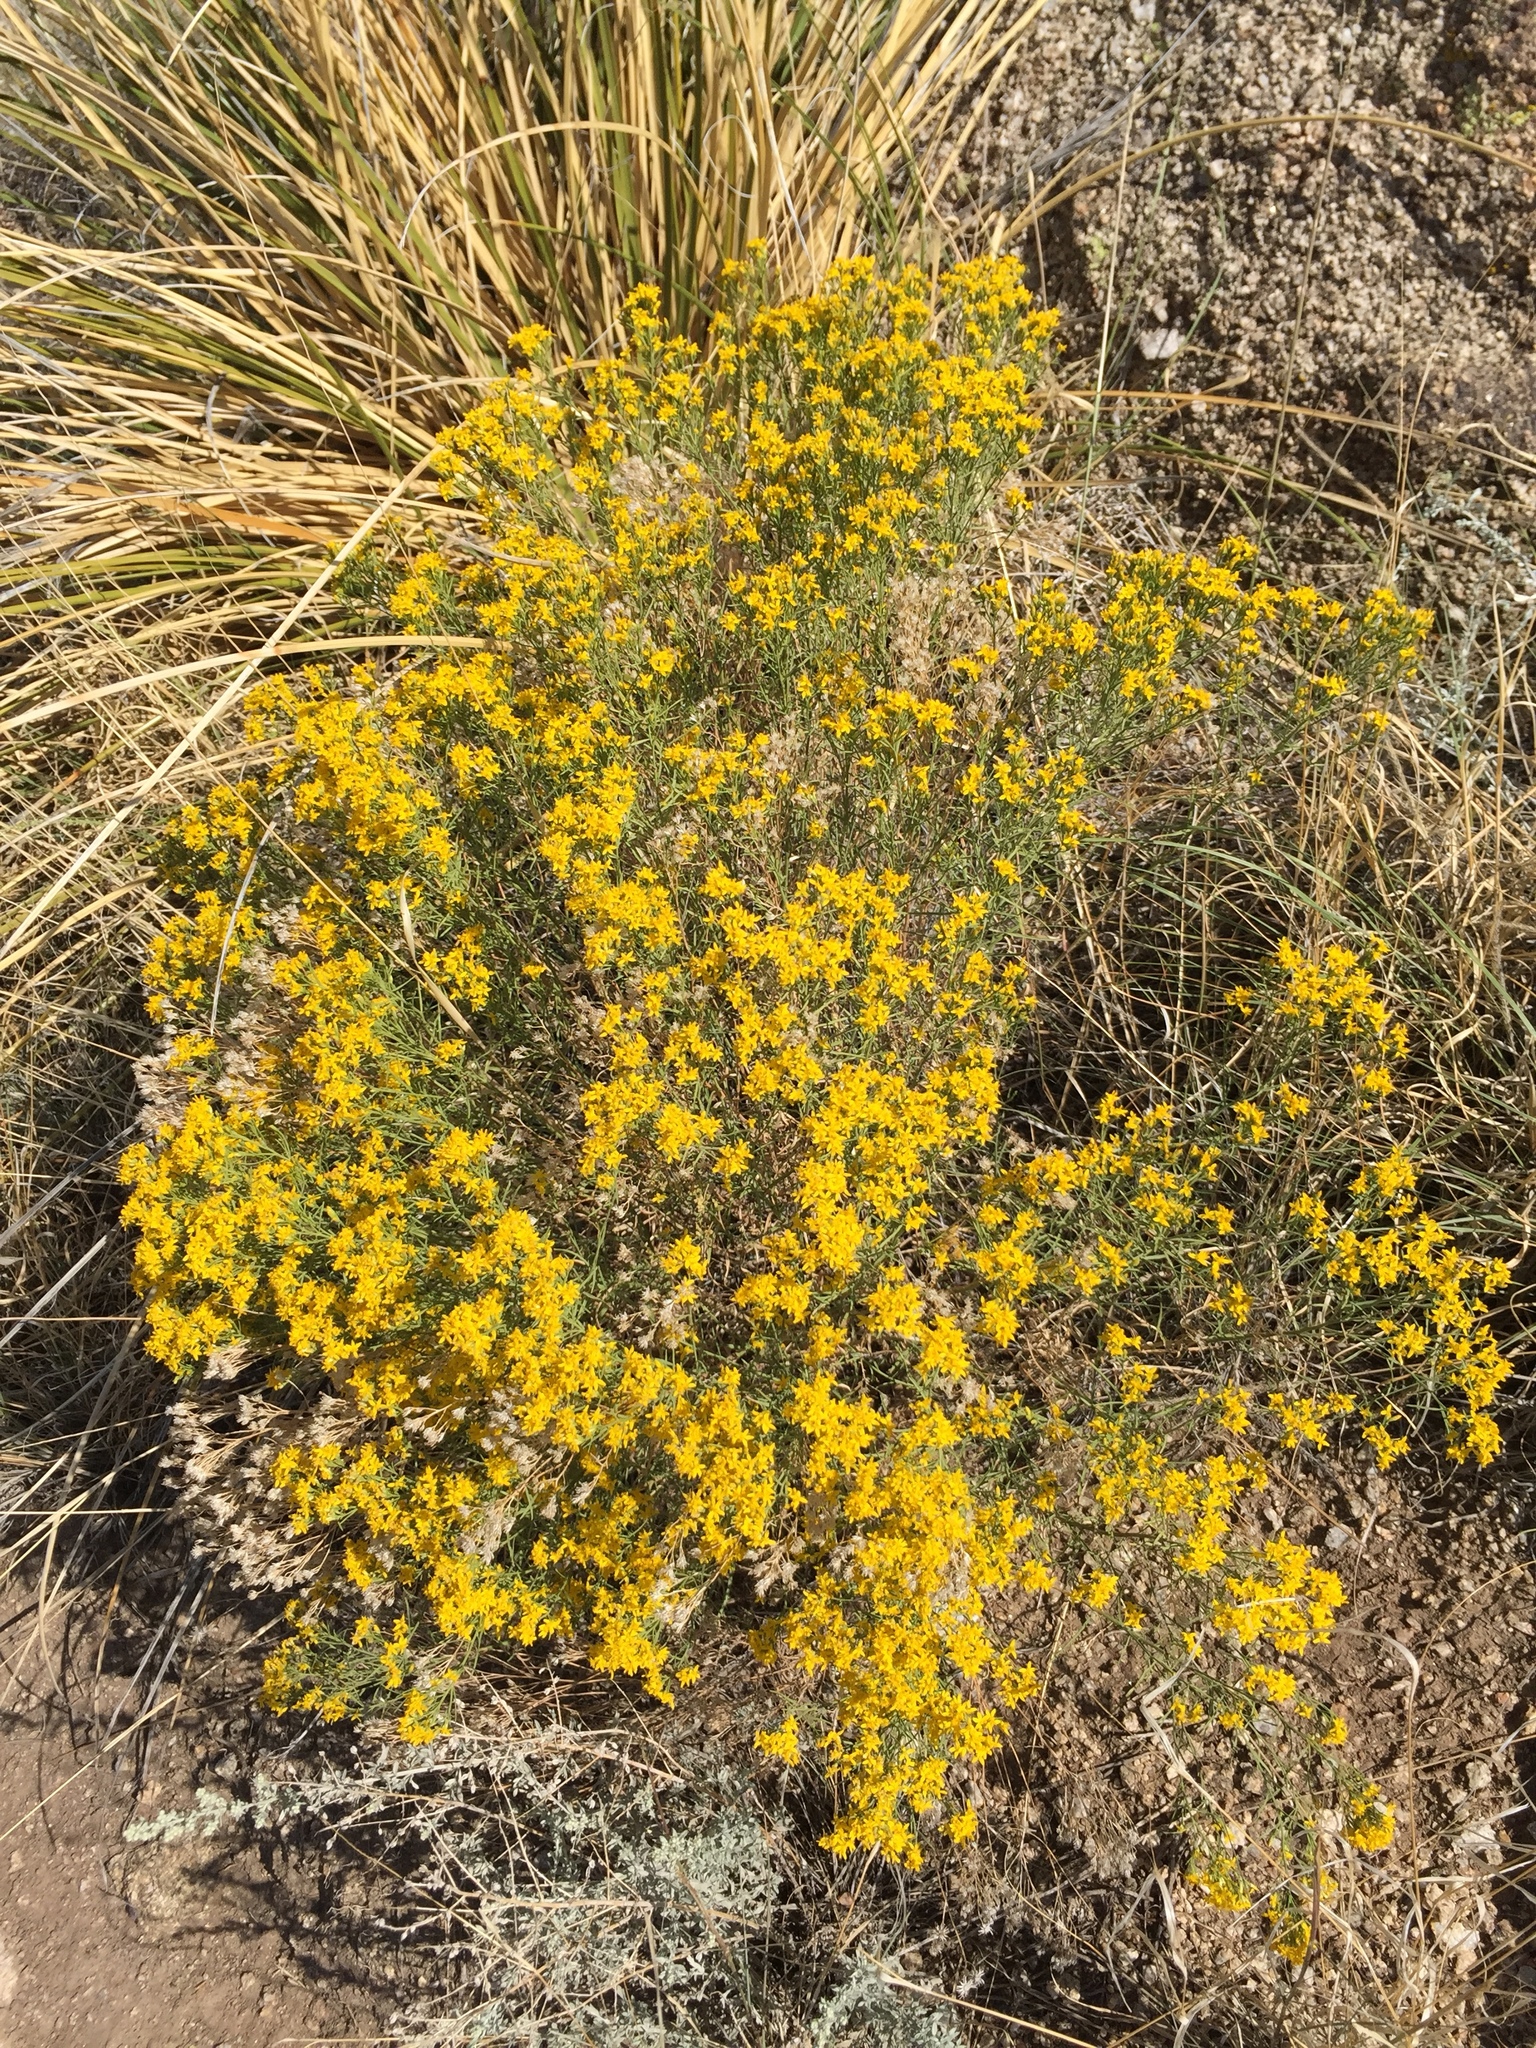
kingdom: Plantae
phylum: Tracheophyta
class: Magnoliopsida
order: Asterales
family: Asteraceae
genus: Gutierrezia
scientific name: Gutierrezia sarothrae
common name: Broom snakeweed
